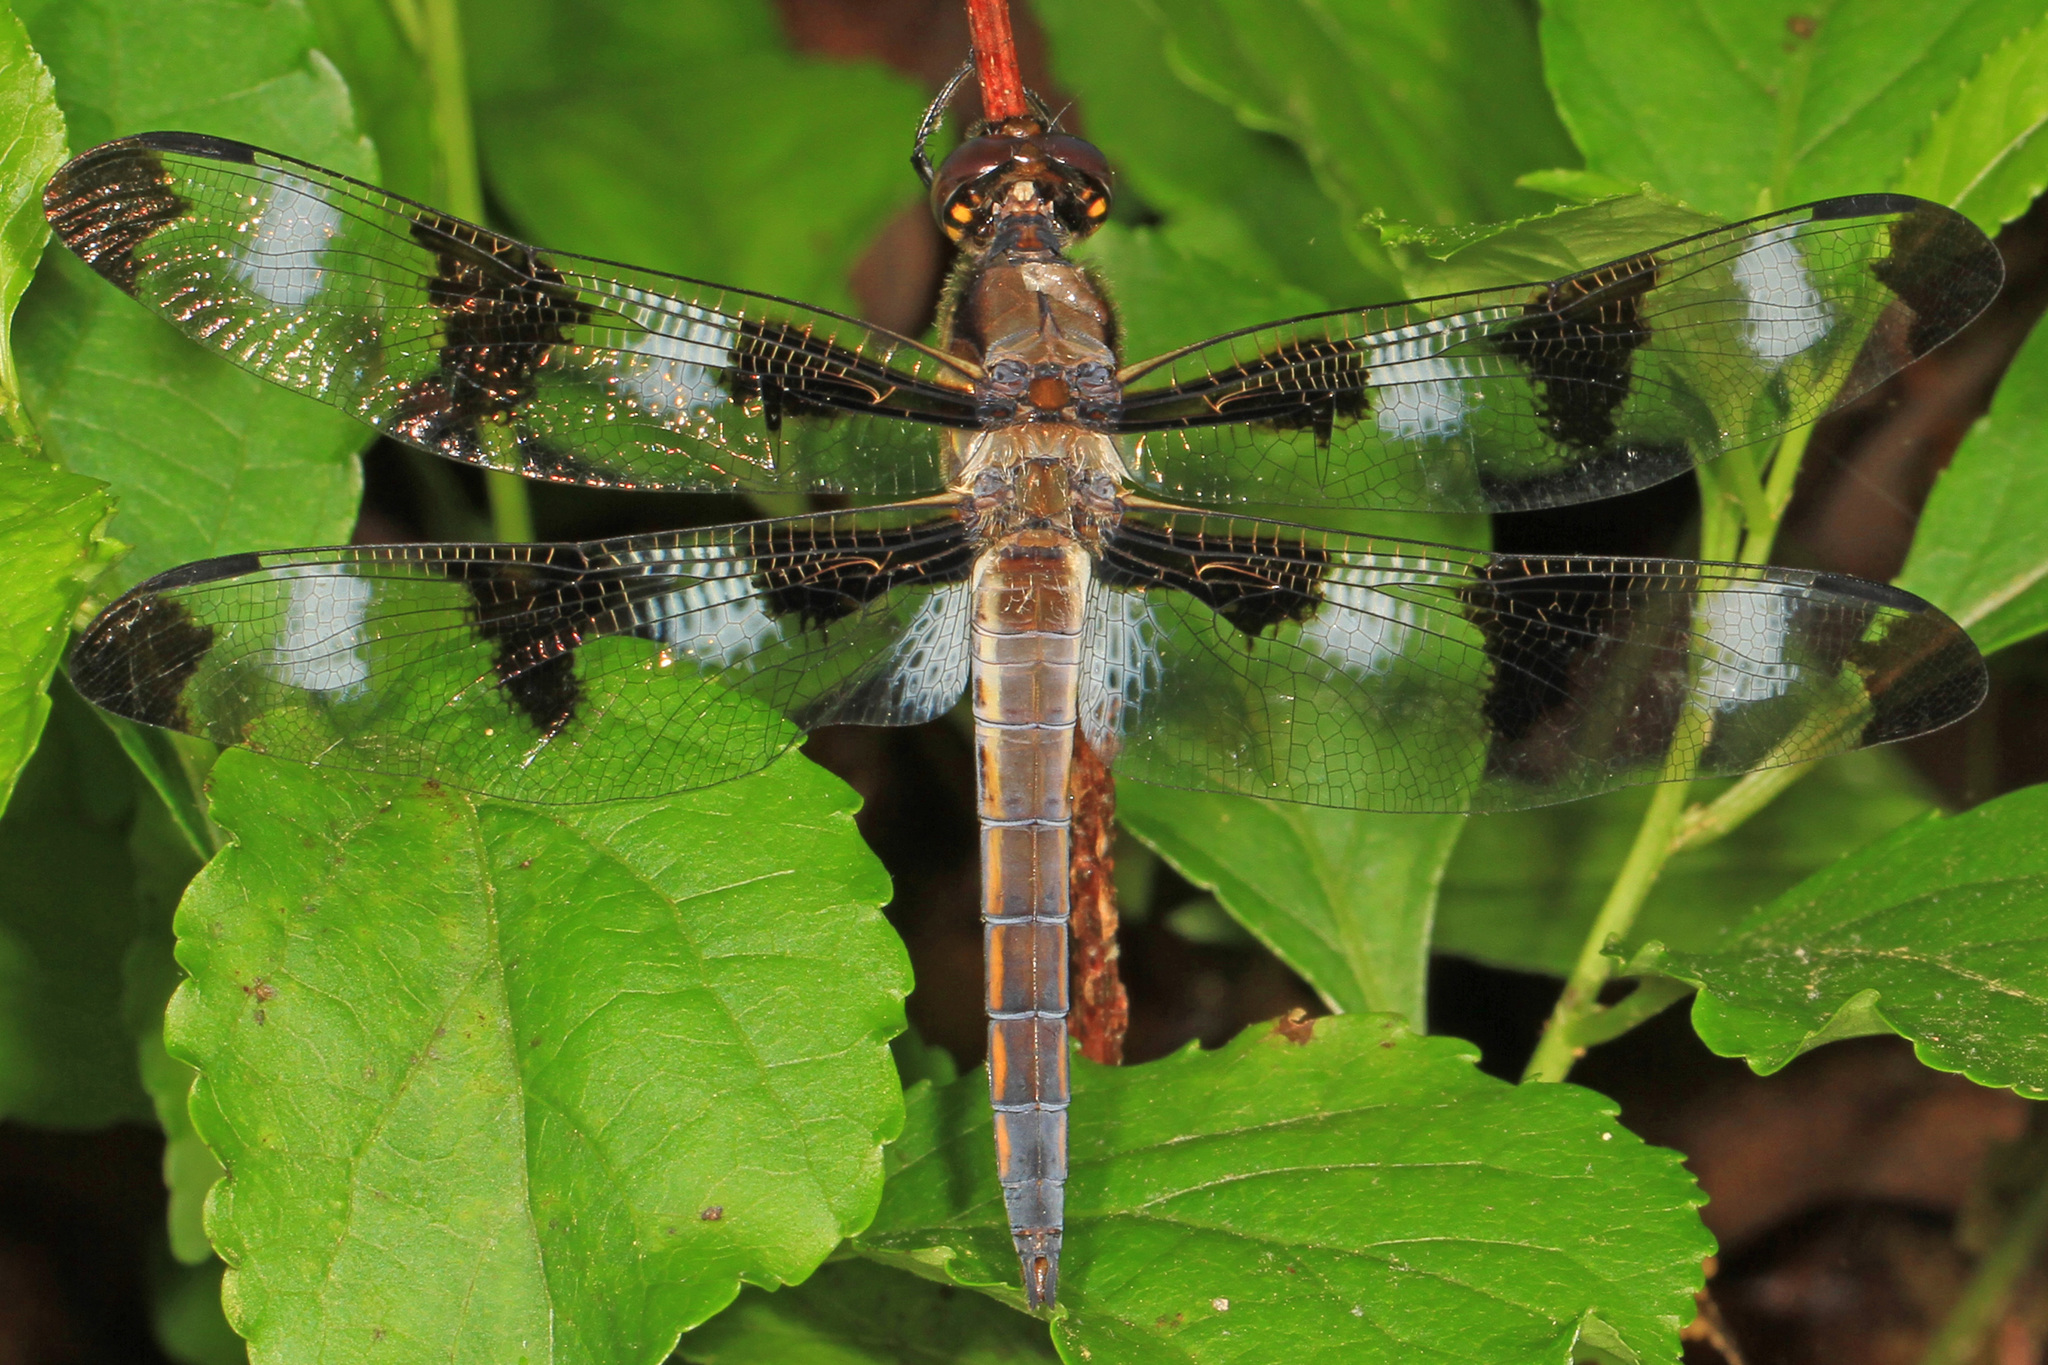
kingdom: Animalia
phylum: Arthropoda
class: Insecta
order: Odonata
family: Libellulidae
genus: Libellula
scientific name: Libellula pulchella
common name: Twelve-spotted skimmer
